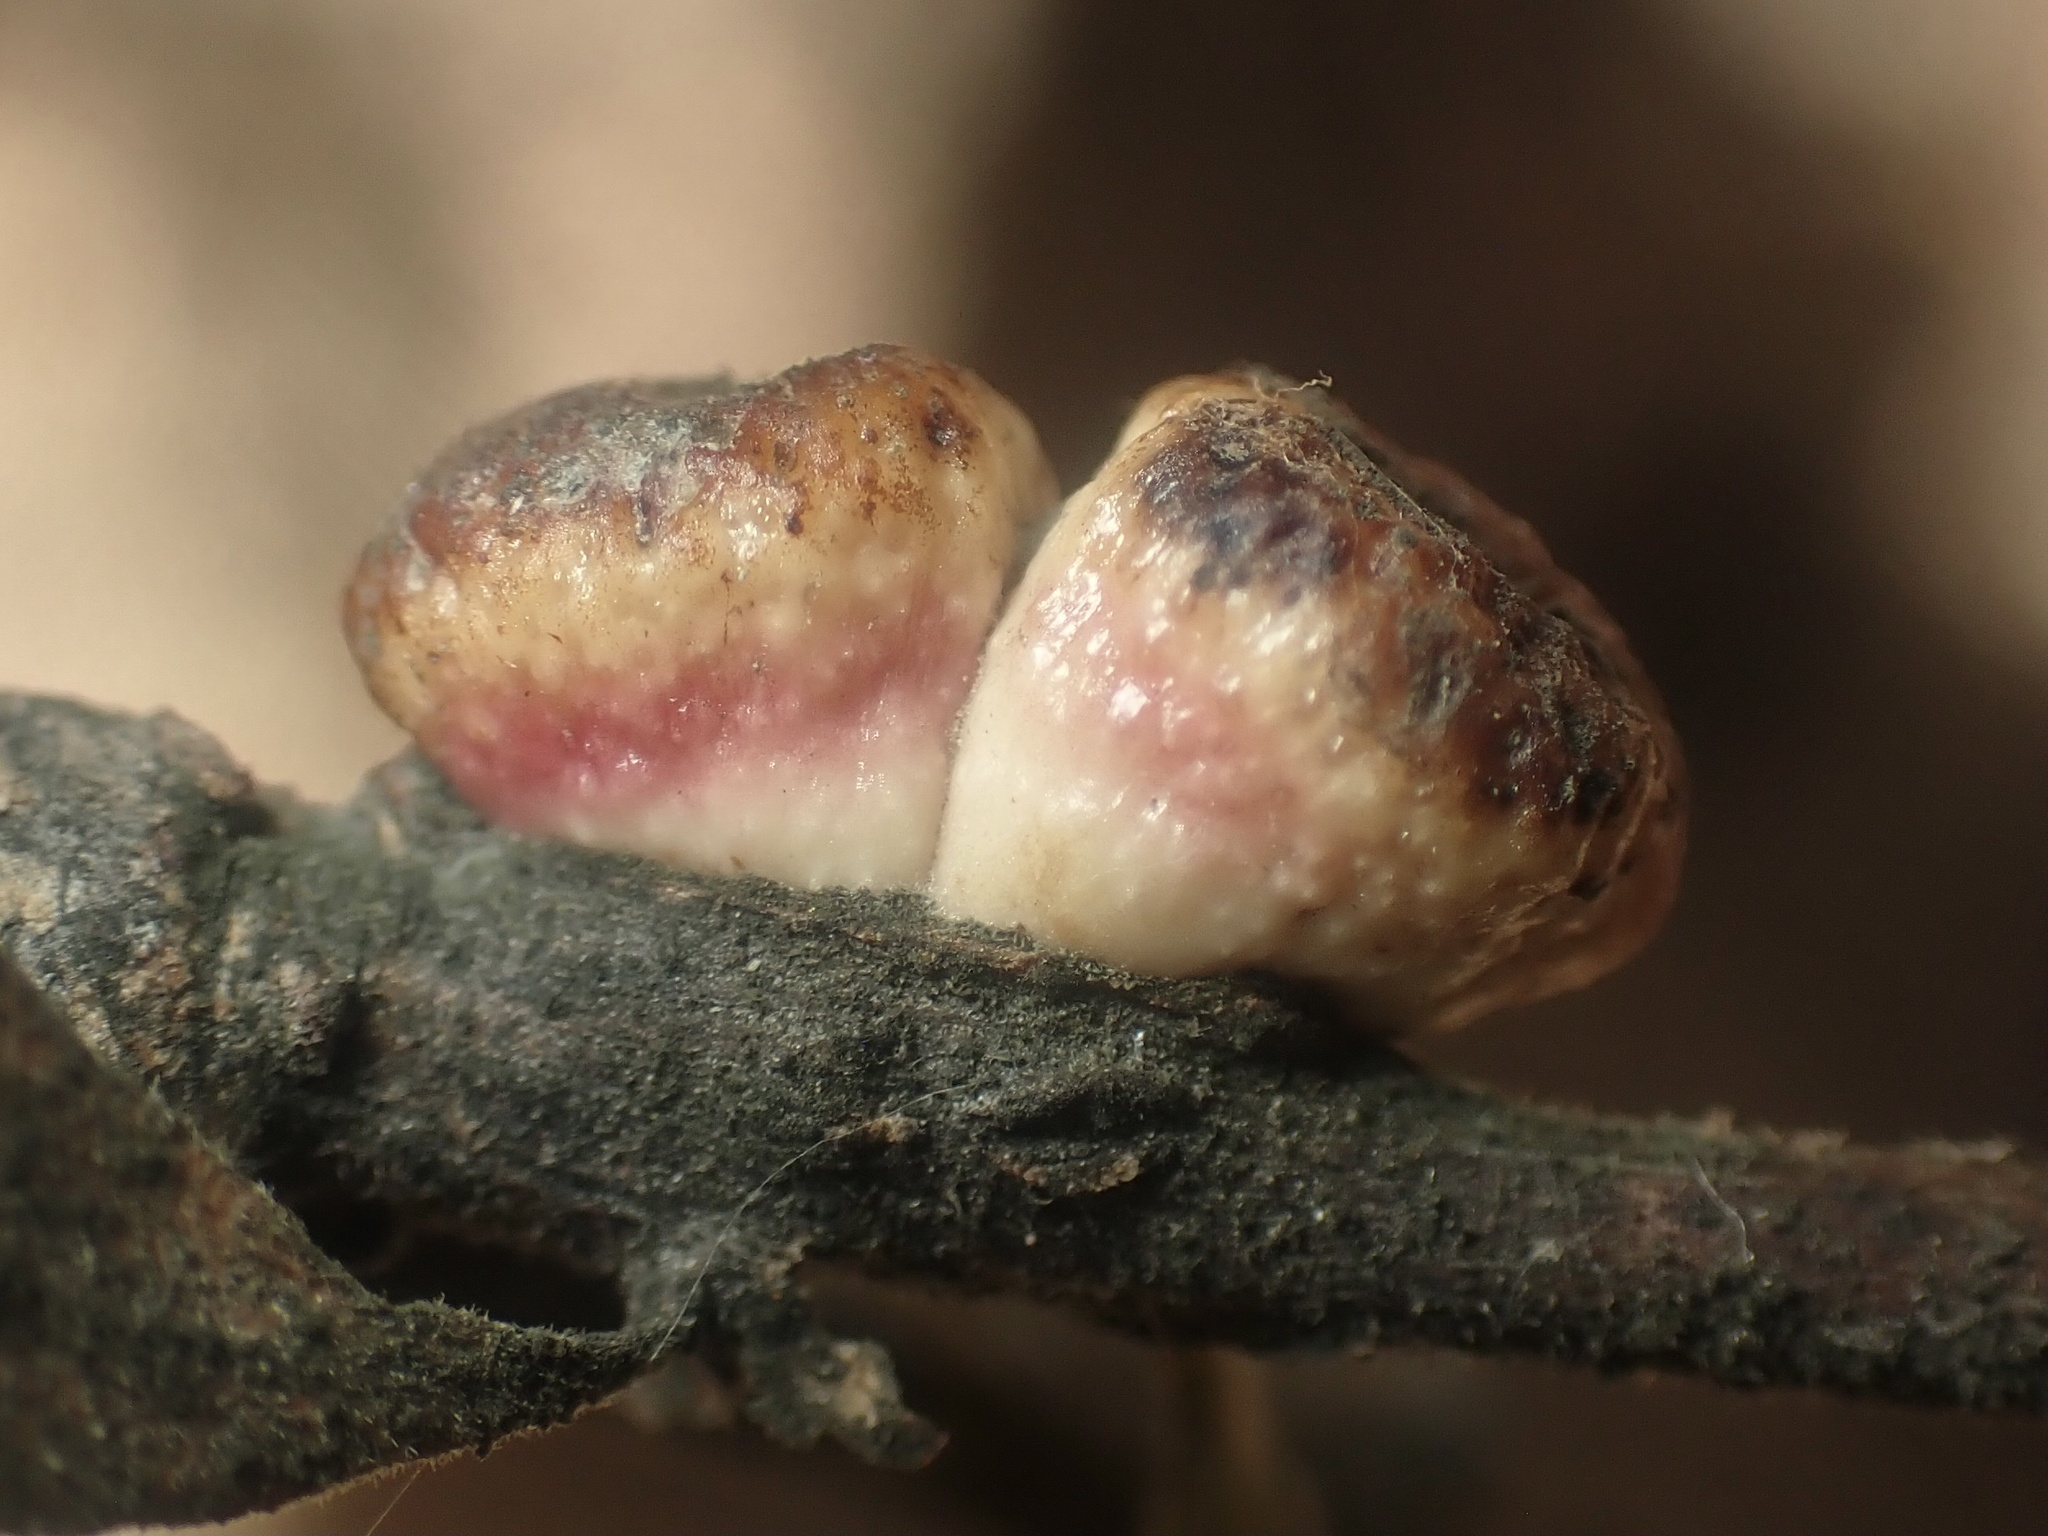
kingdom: Animalia
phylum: Arthropoda
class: Insecta
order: Hymenoptera
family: Cynipidae
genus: Disholcaspis
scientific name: Disholcaspis
